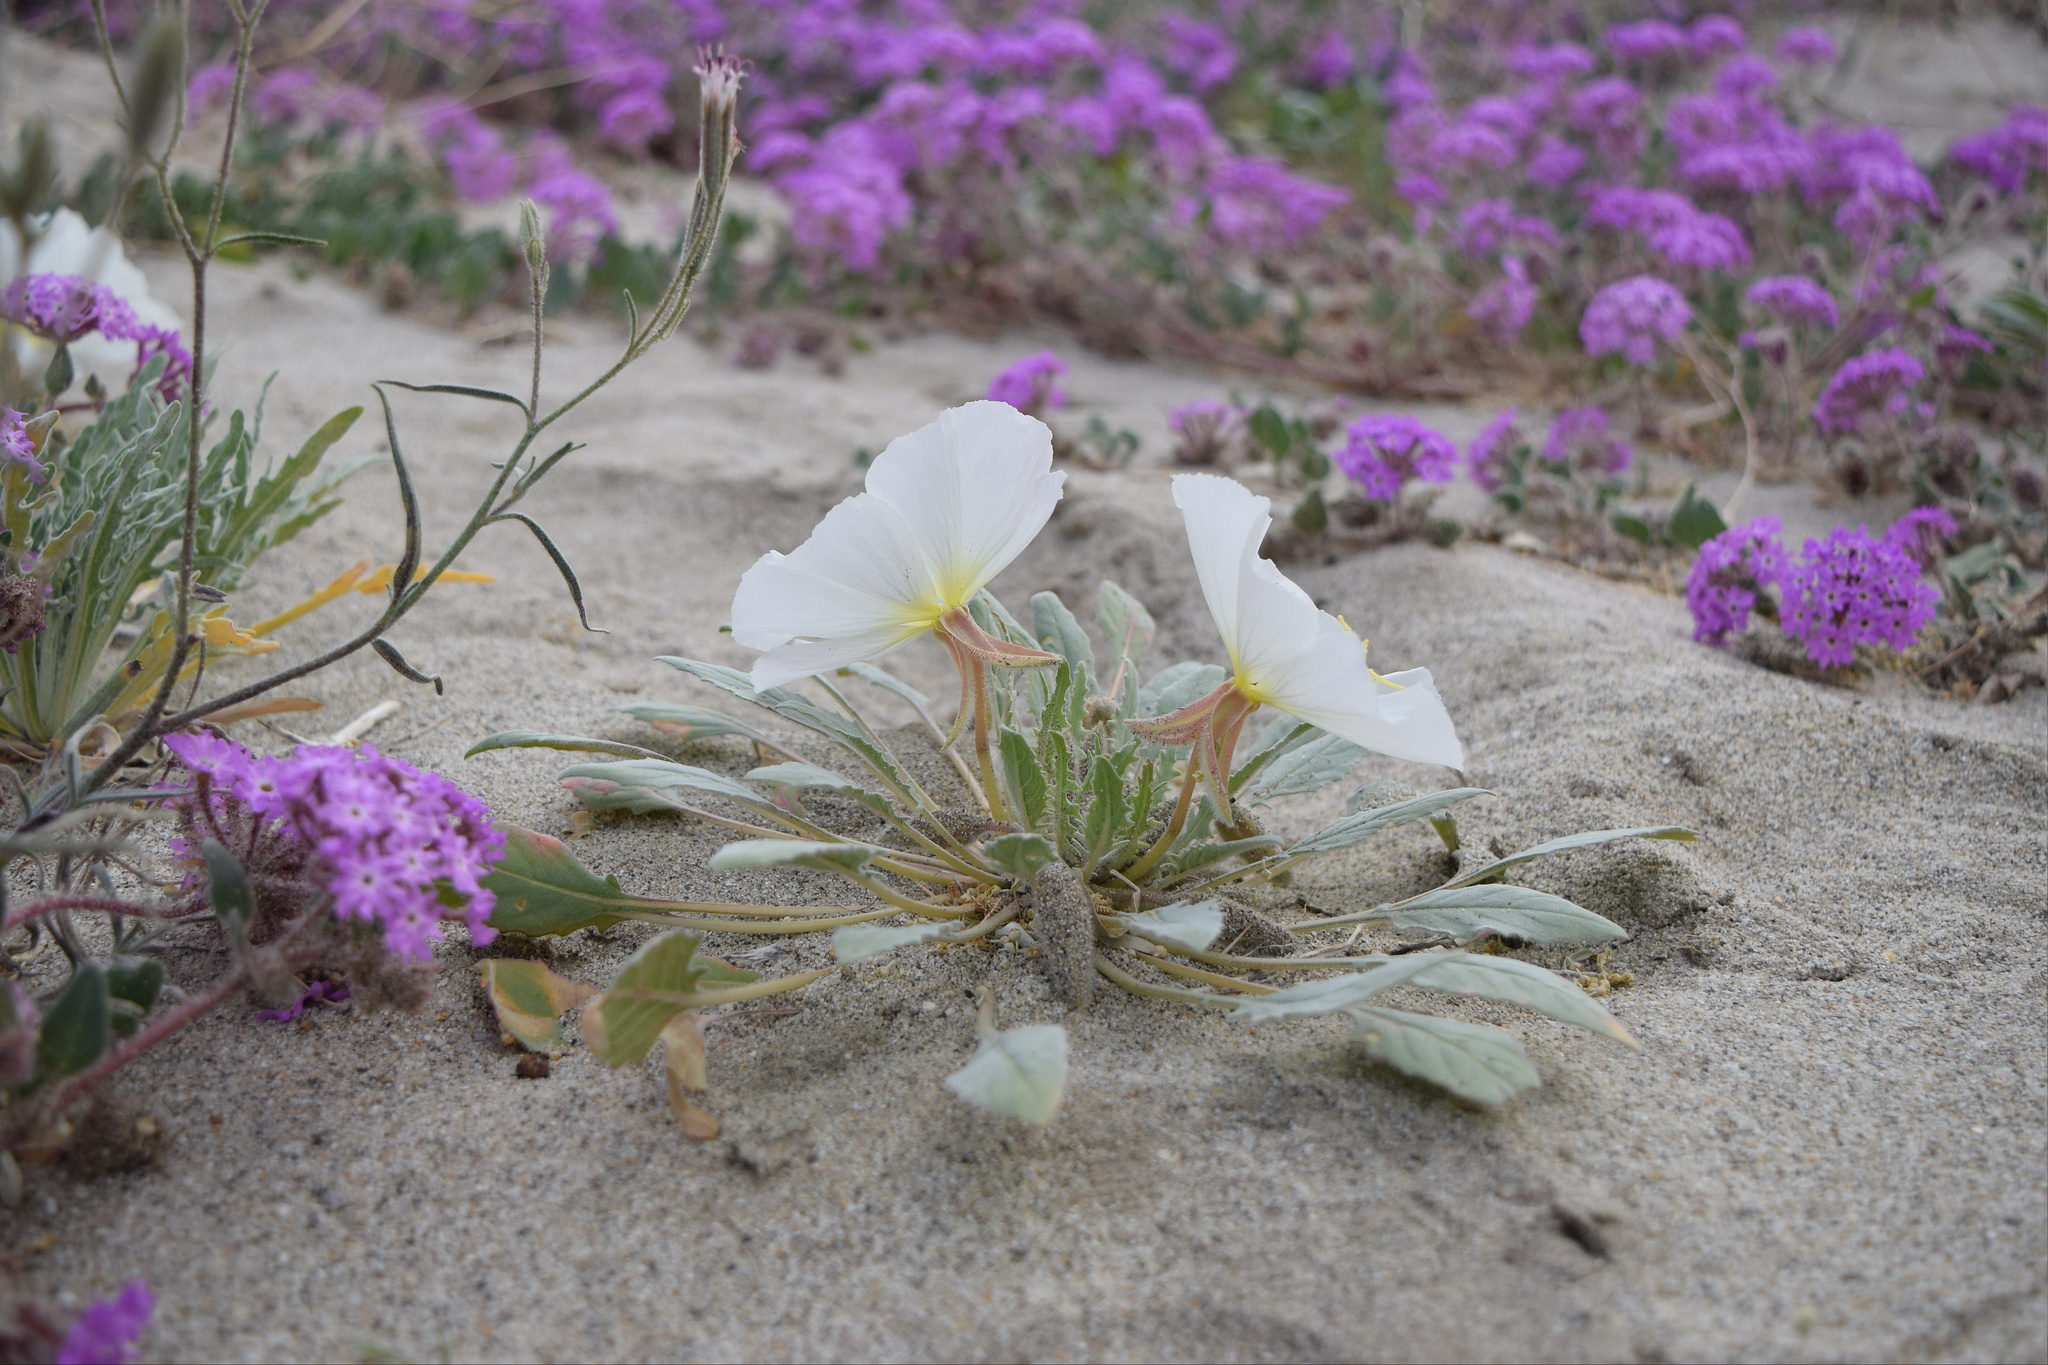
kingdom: Plantae
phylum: Tracheophyta
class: Magnoliopsida
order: Myrtales
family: Onagraceae
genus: Oenothera
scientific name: Oenothera deltoides
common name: Basket evening-primrose
